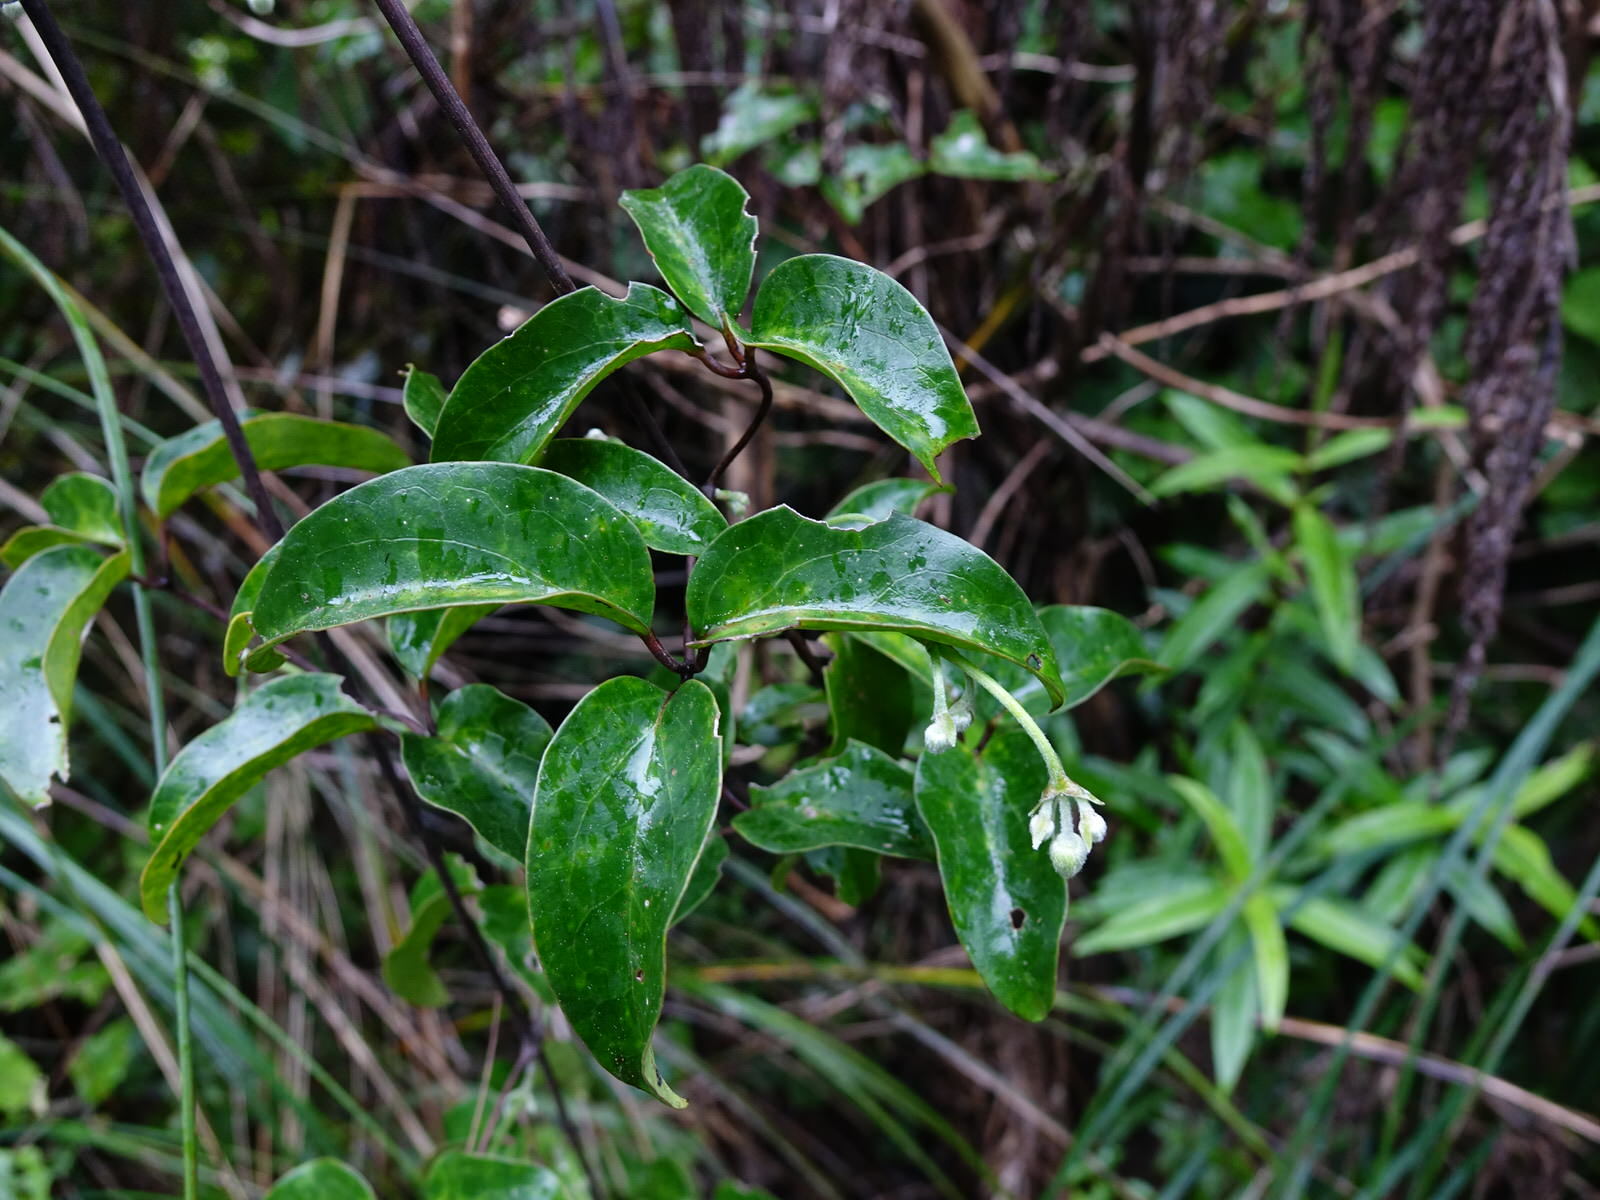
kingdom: Plantae
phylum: Tracheophyta
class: Magnoliopsida
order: Ranunculales
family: Ranunculaceae
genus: Clematis
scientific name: Clematis paniculata
